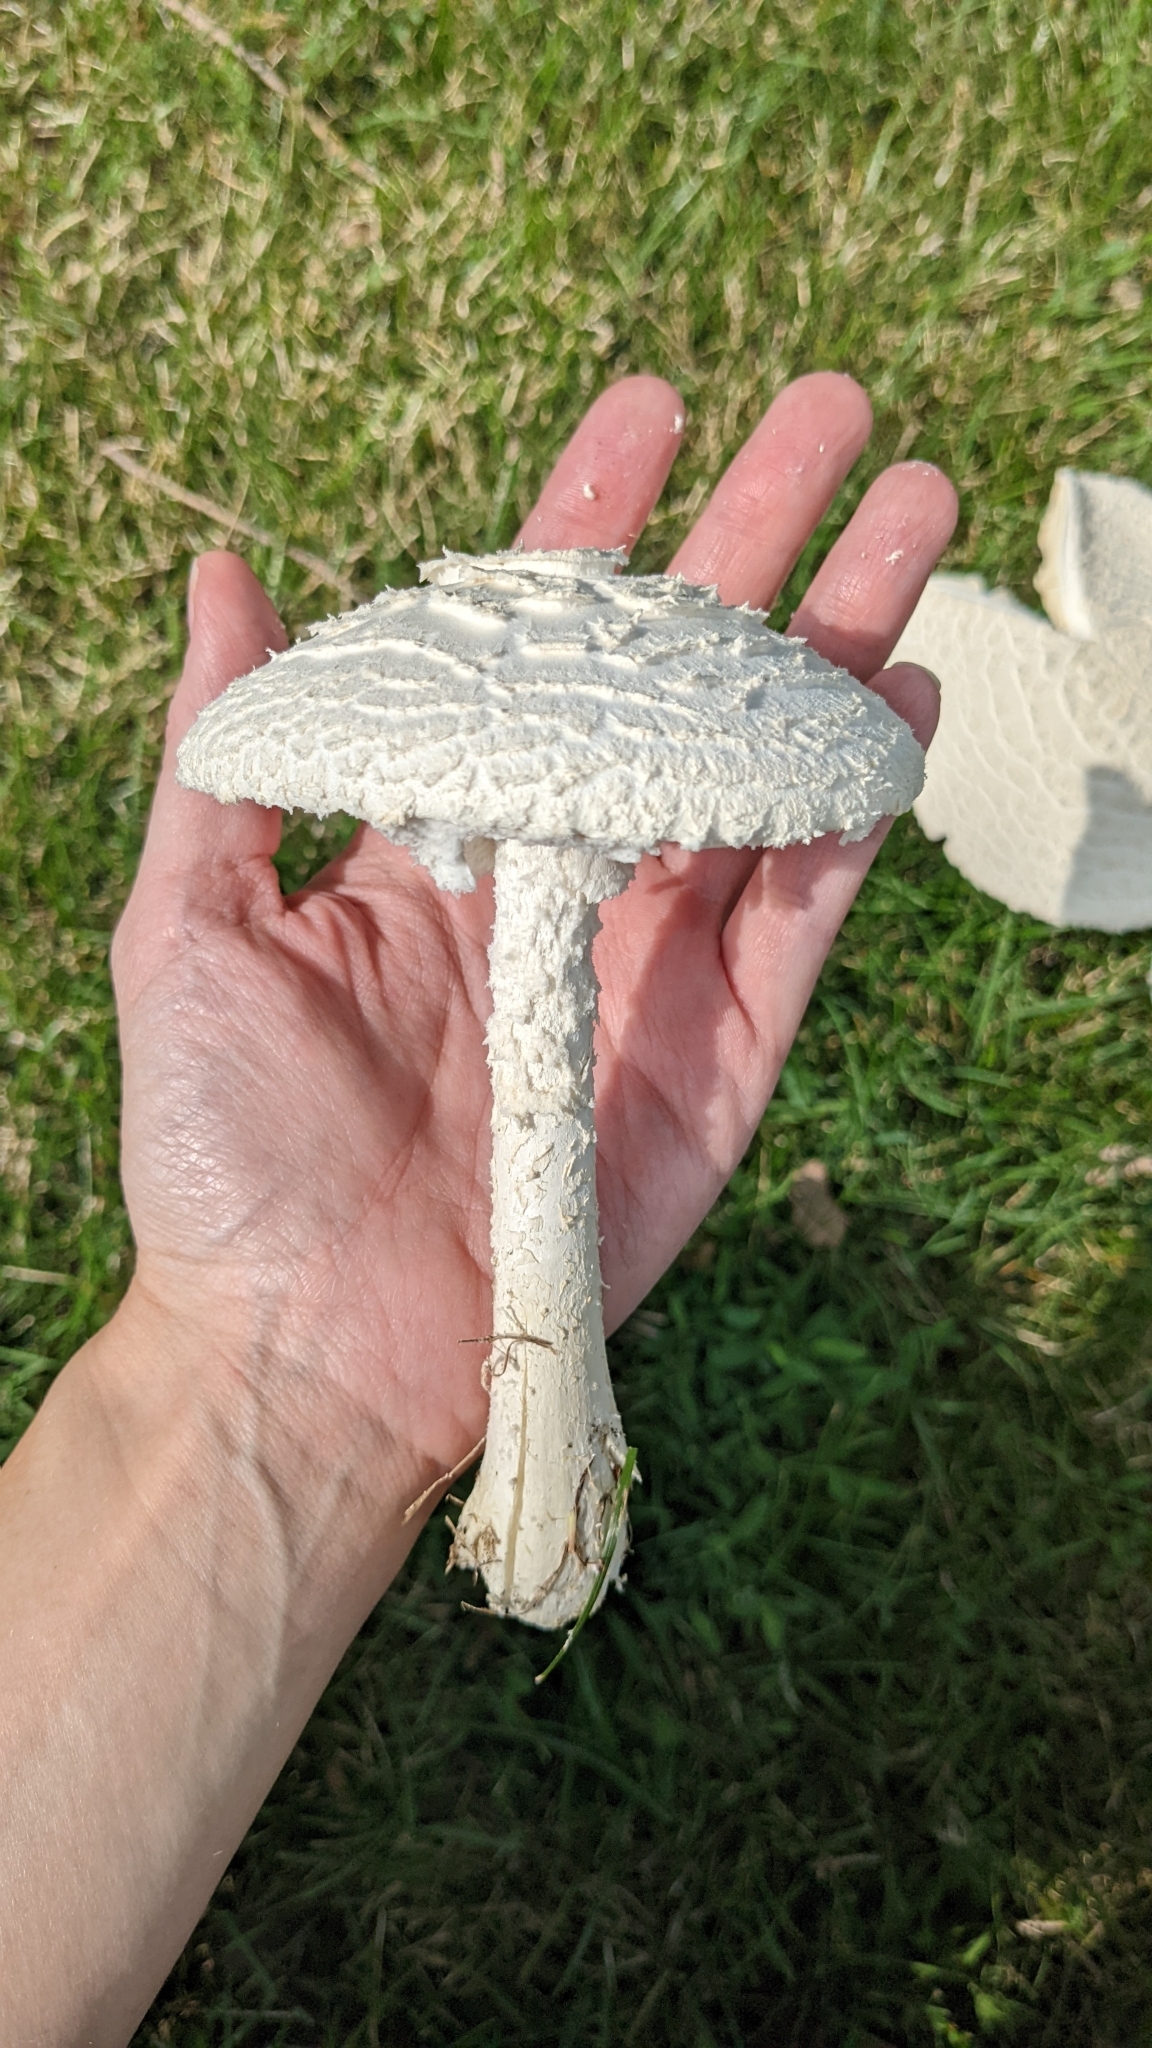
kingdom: Fungi
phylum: Basidiomycota
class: Agaricomycetes
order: Agaricales
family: Amanitaceae
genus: Amanita
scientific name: Amanita thiersii
